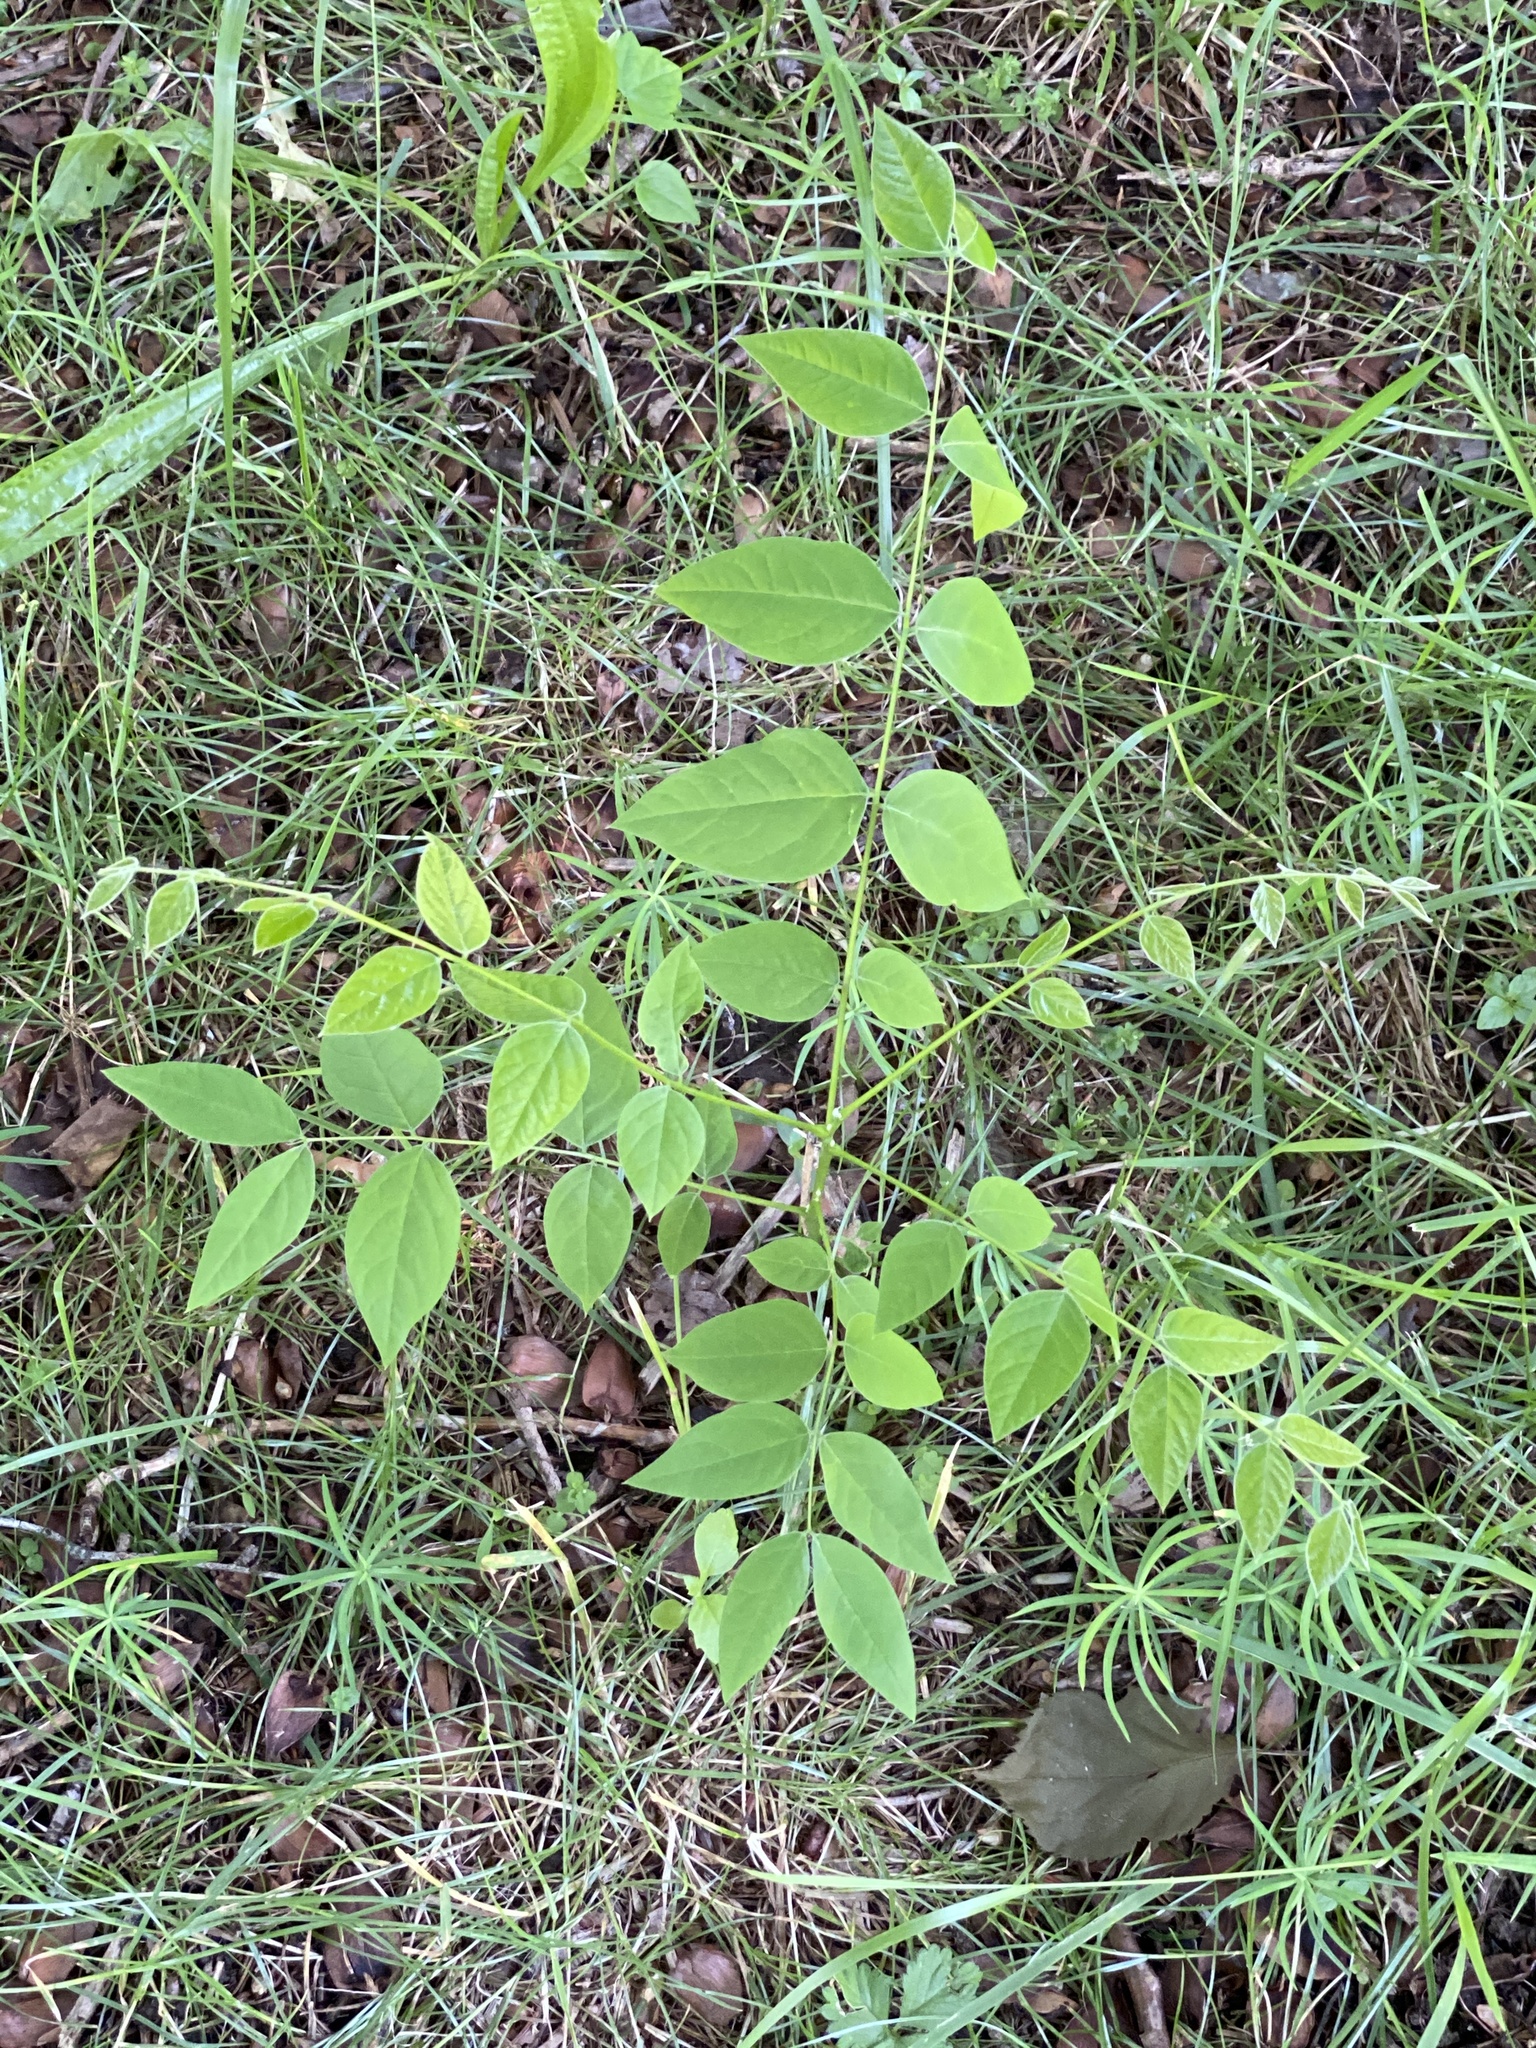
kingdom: Plantae
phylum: Tracheophyta
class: Magnoliopsida
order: Fabales
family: Fabaceae
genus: Gymnocladus
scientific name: Gymnocladus dioicus
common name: Kentucky coffee-tree
